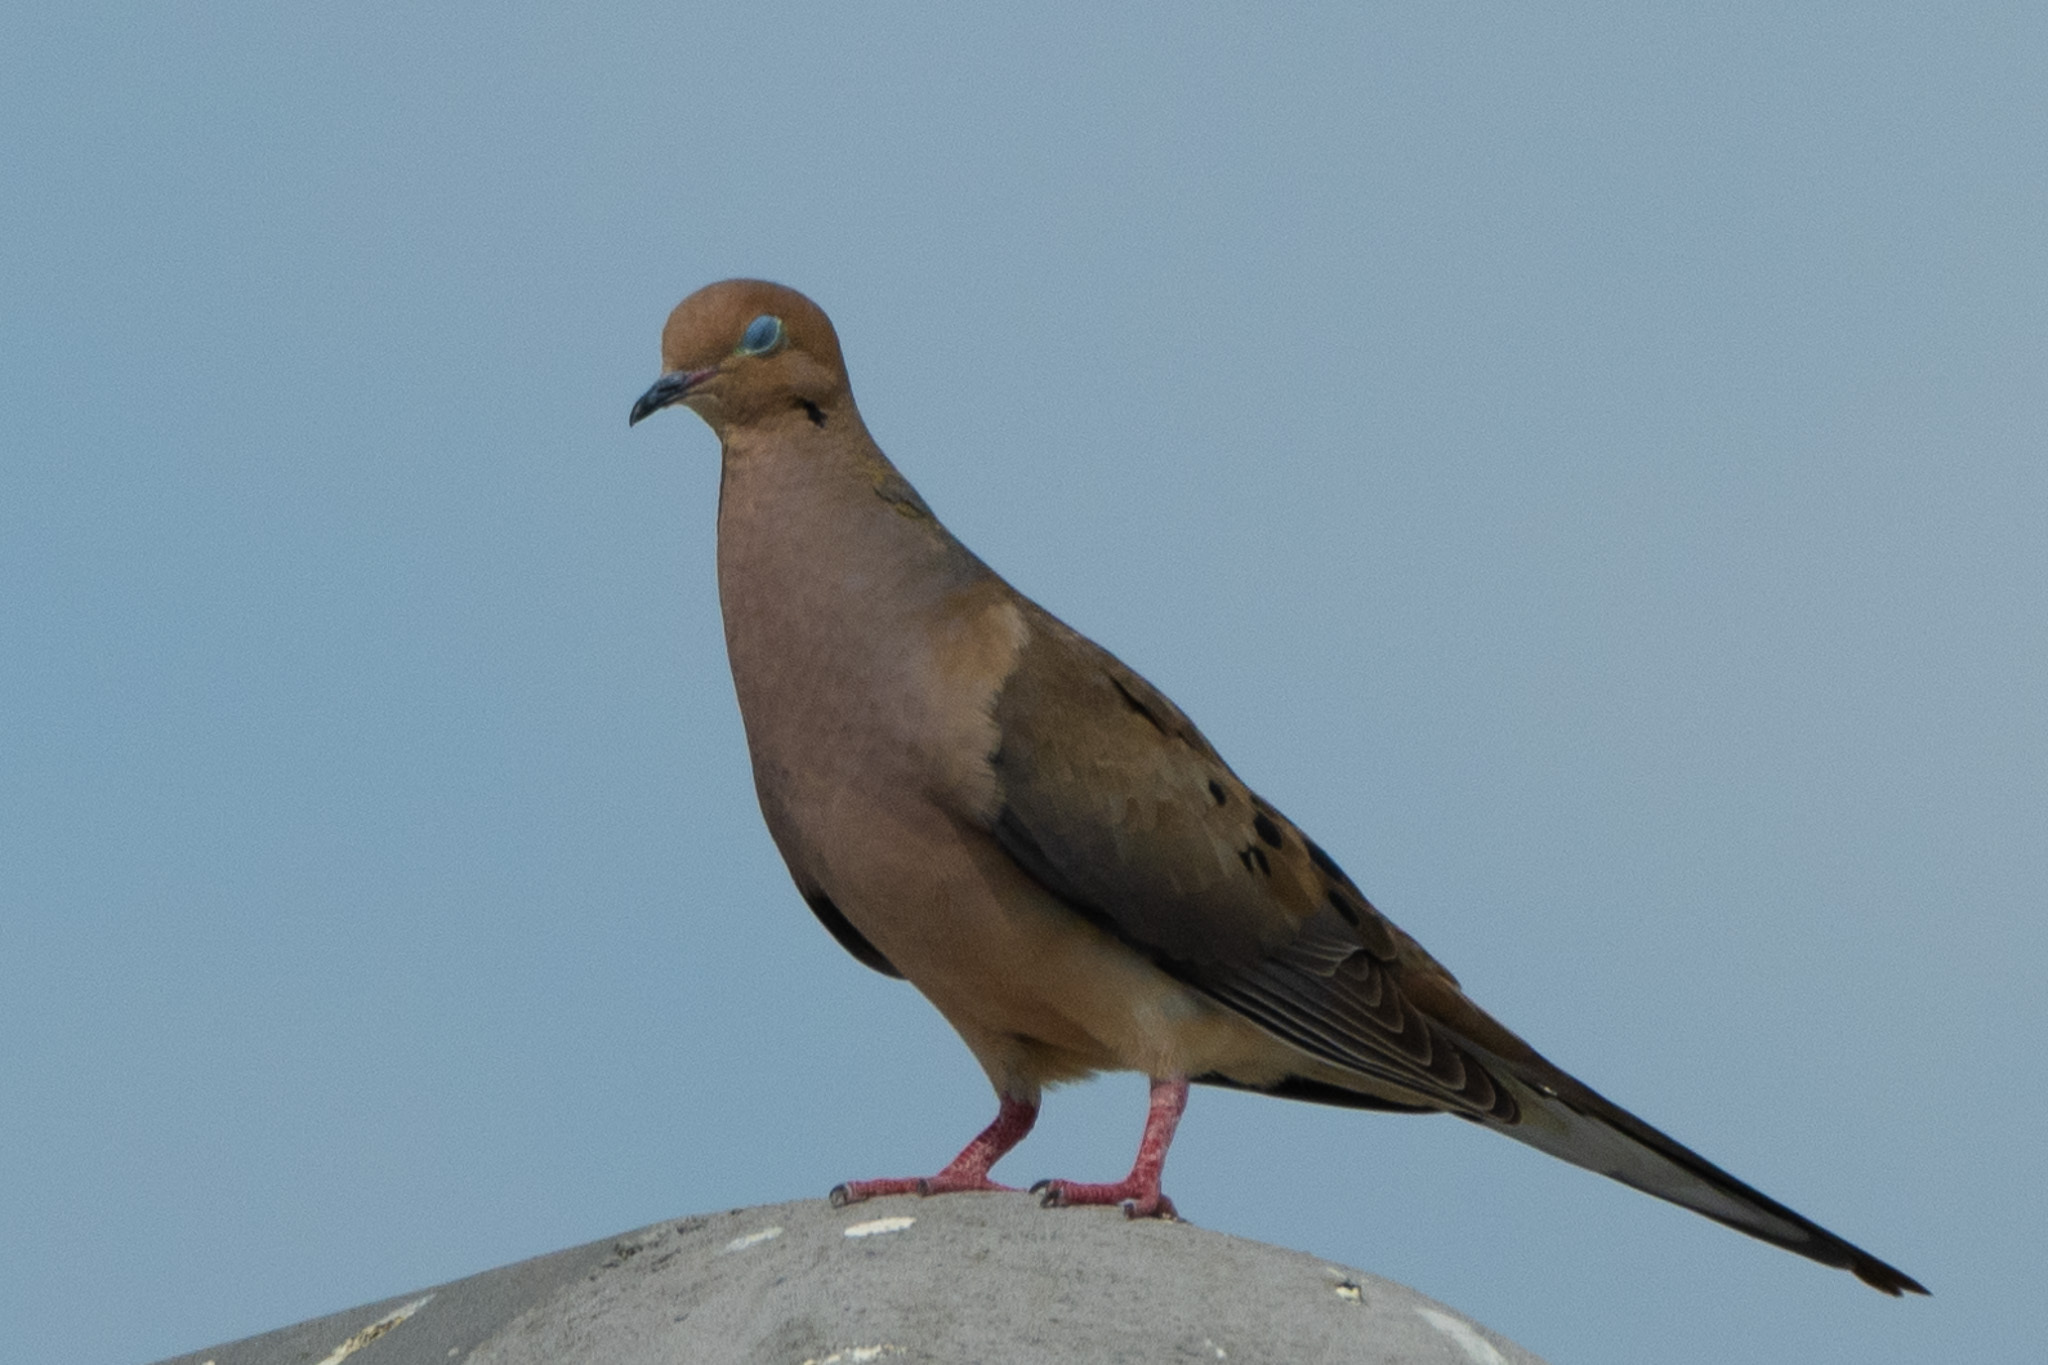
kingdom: Animalia
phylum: Chordata
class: Aves
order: Columbiformes
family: Columbidae
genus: Zenaida
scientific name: Zenaida macroura
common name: Mourning dove
